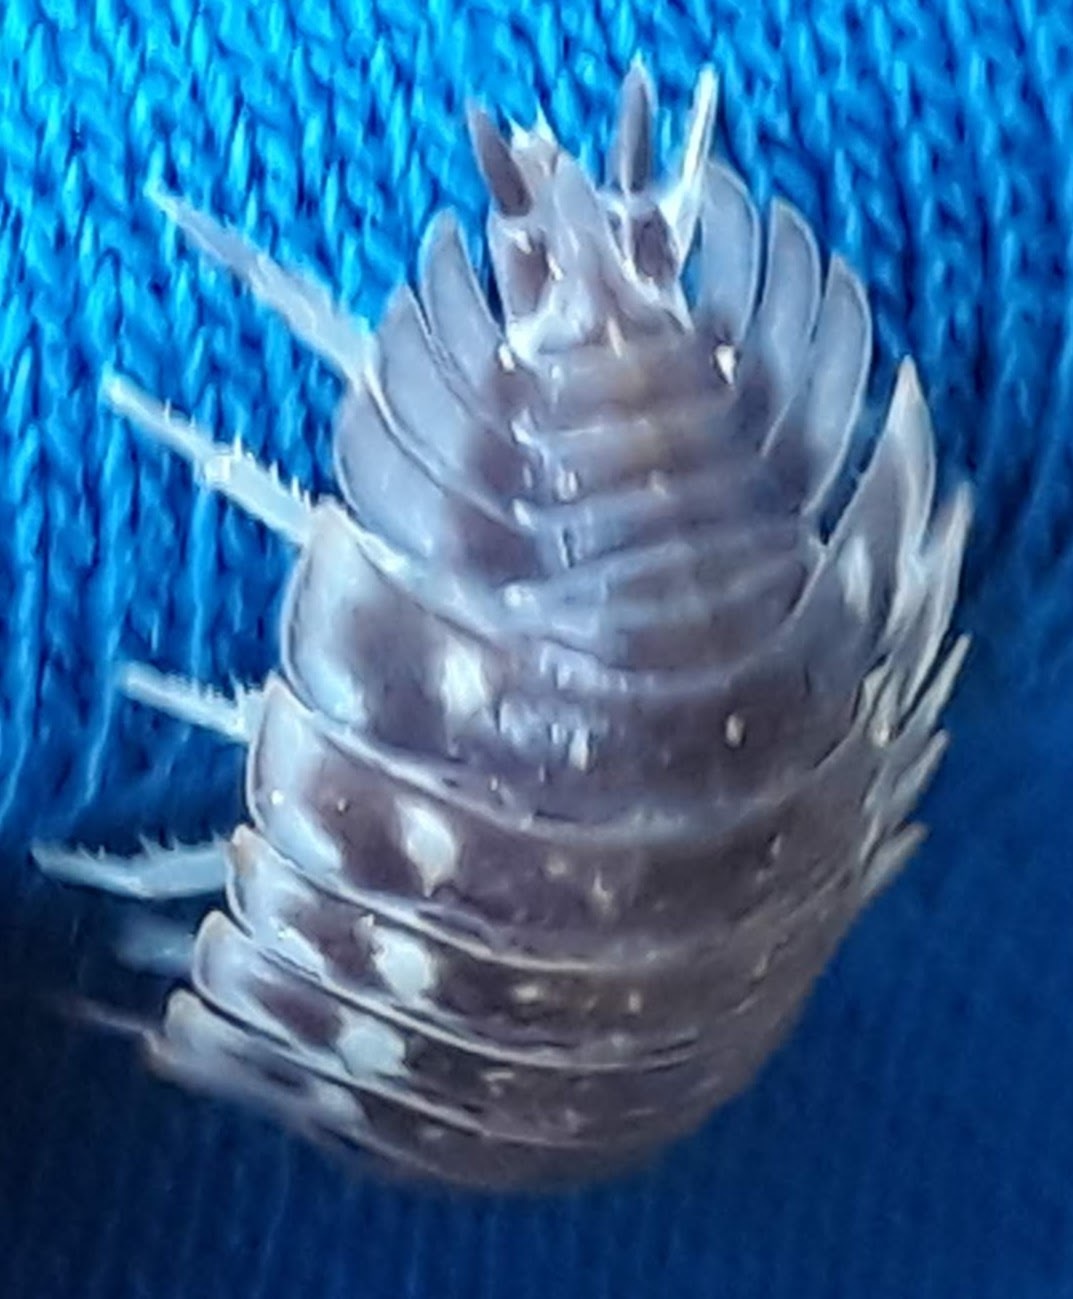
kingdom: Animalia
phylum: Arthropoda
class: Malacostraca
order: Isopoda
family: Oniscidae
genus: Oniscus
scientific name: Oniscus asellus
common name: Common shiny woodlouse
